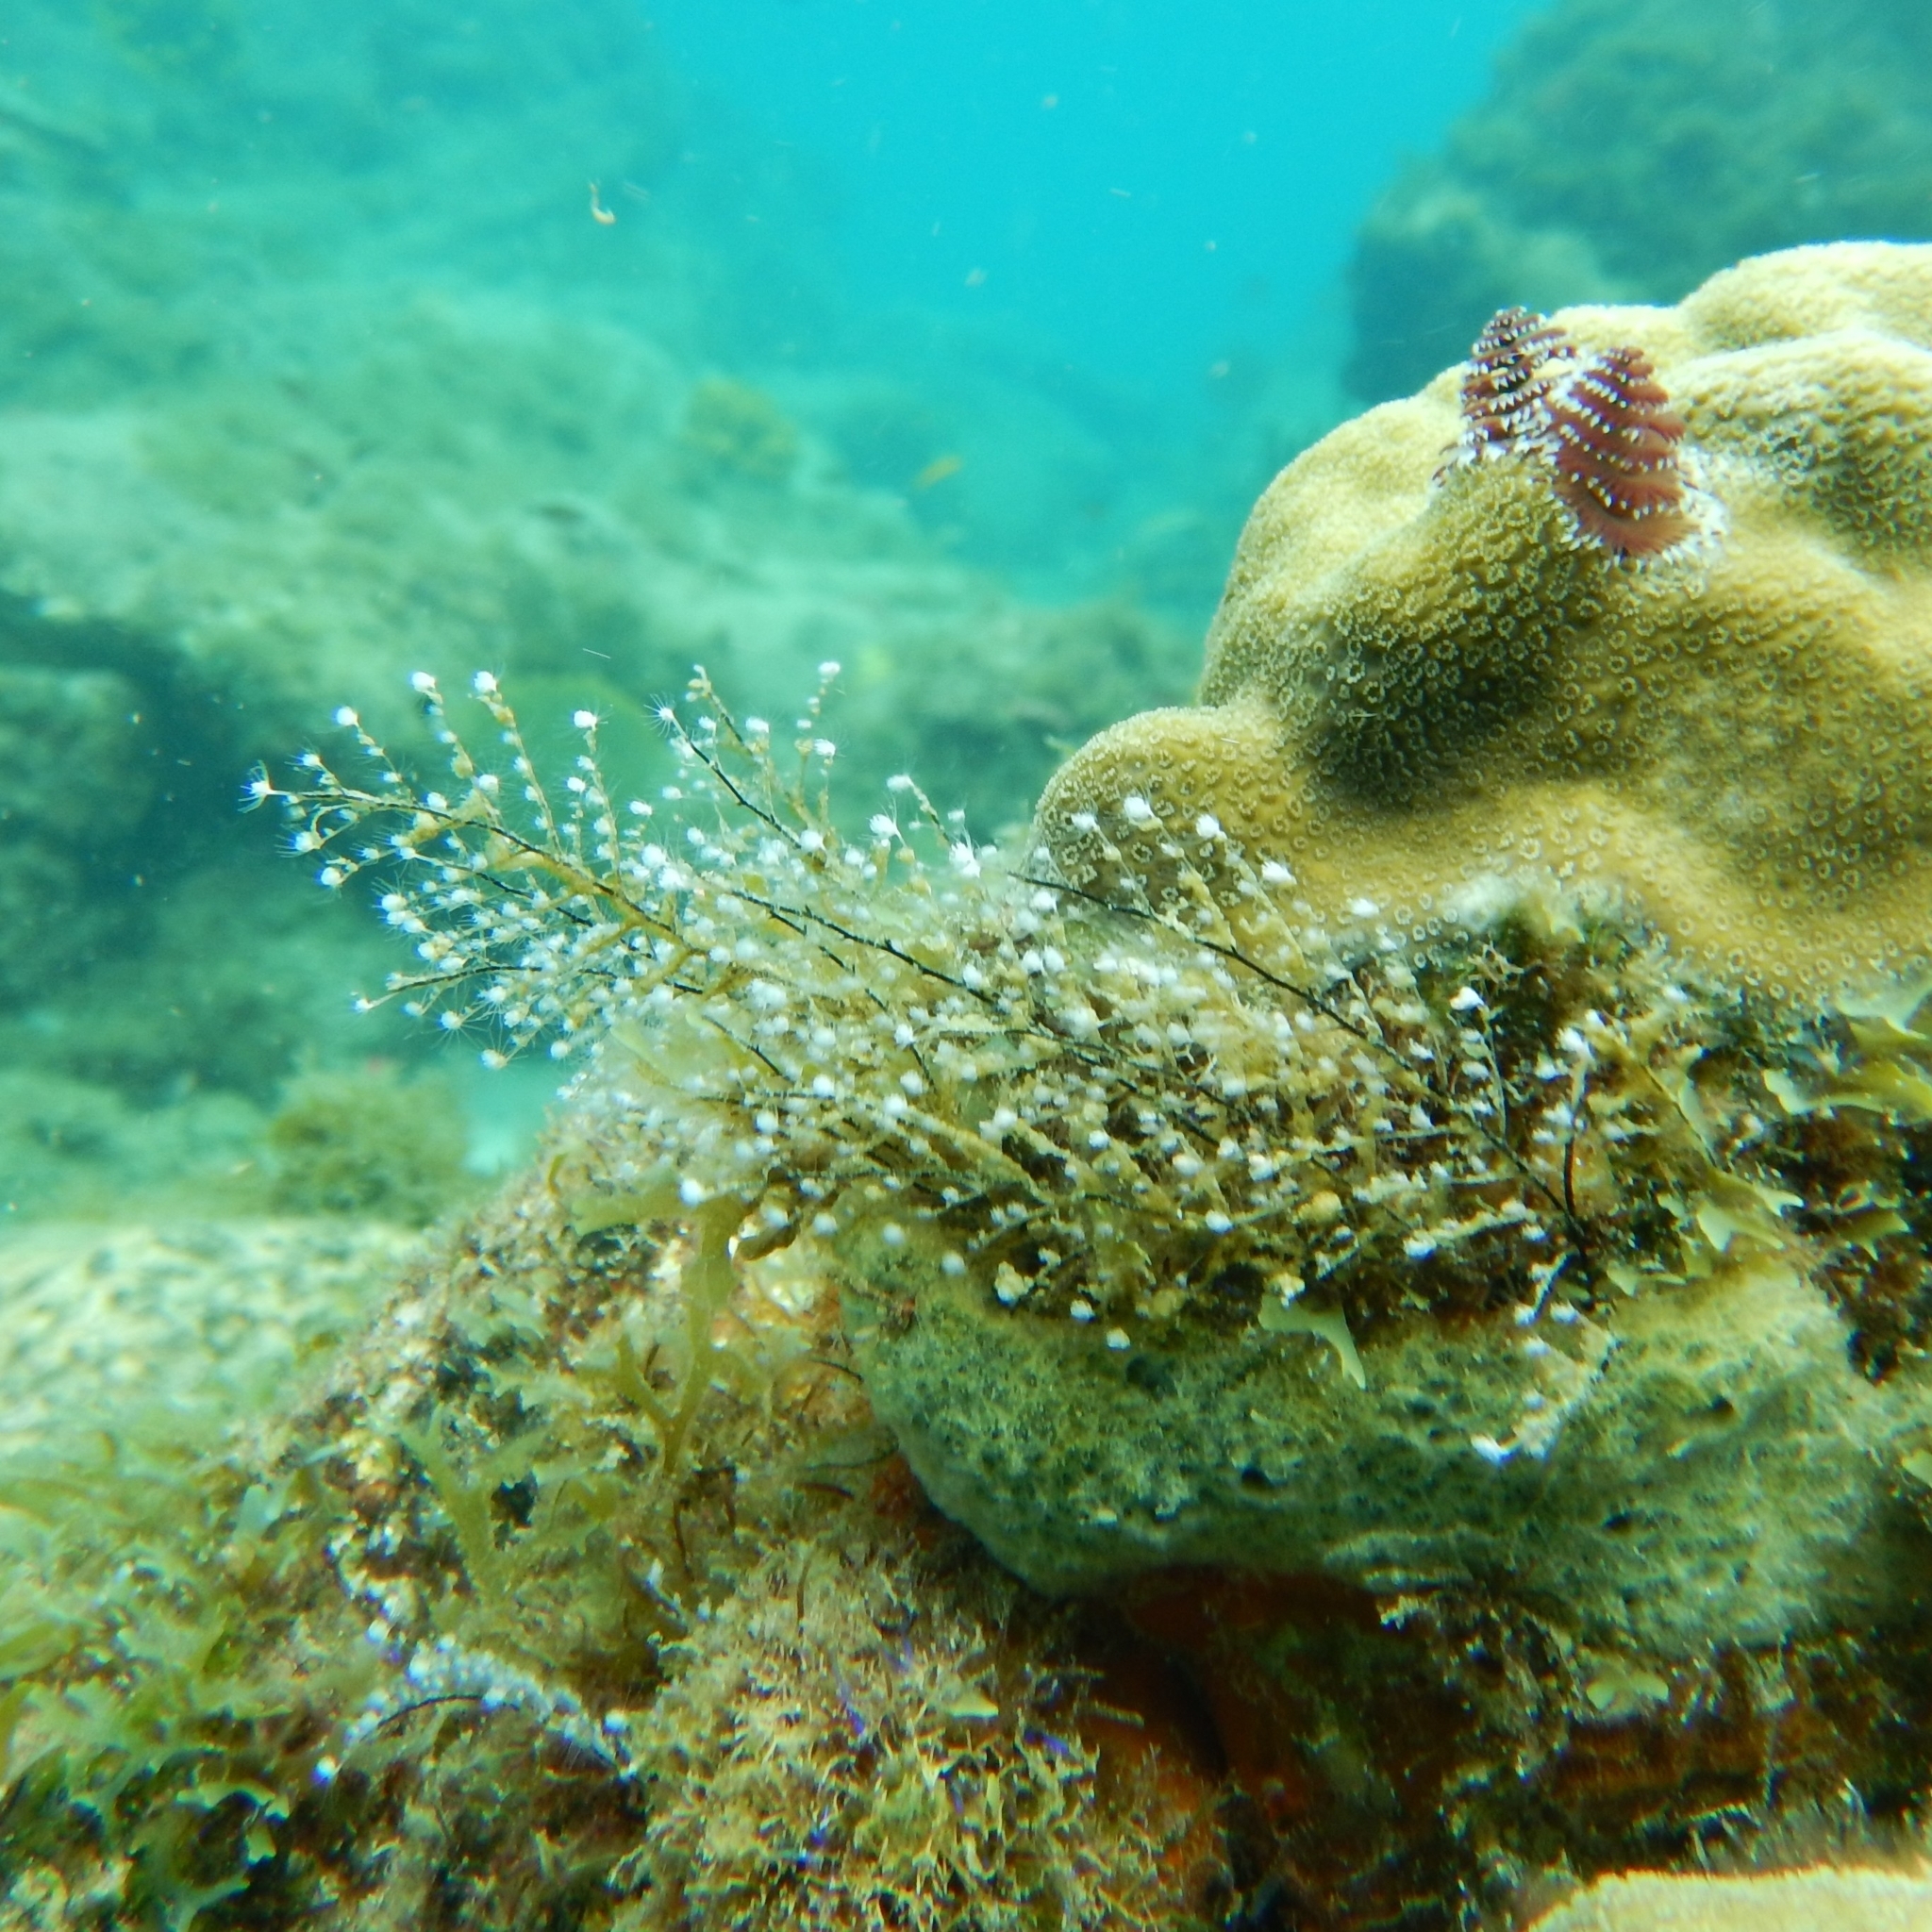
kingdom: Animalia
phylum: Cnidaria
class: Hydrozoa
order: Anthoathecata
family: Pennariidae
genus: Pennaria
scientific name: Pennaria disticha
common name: Feather hydroid
